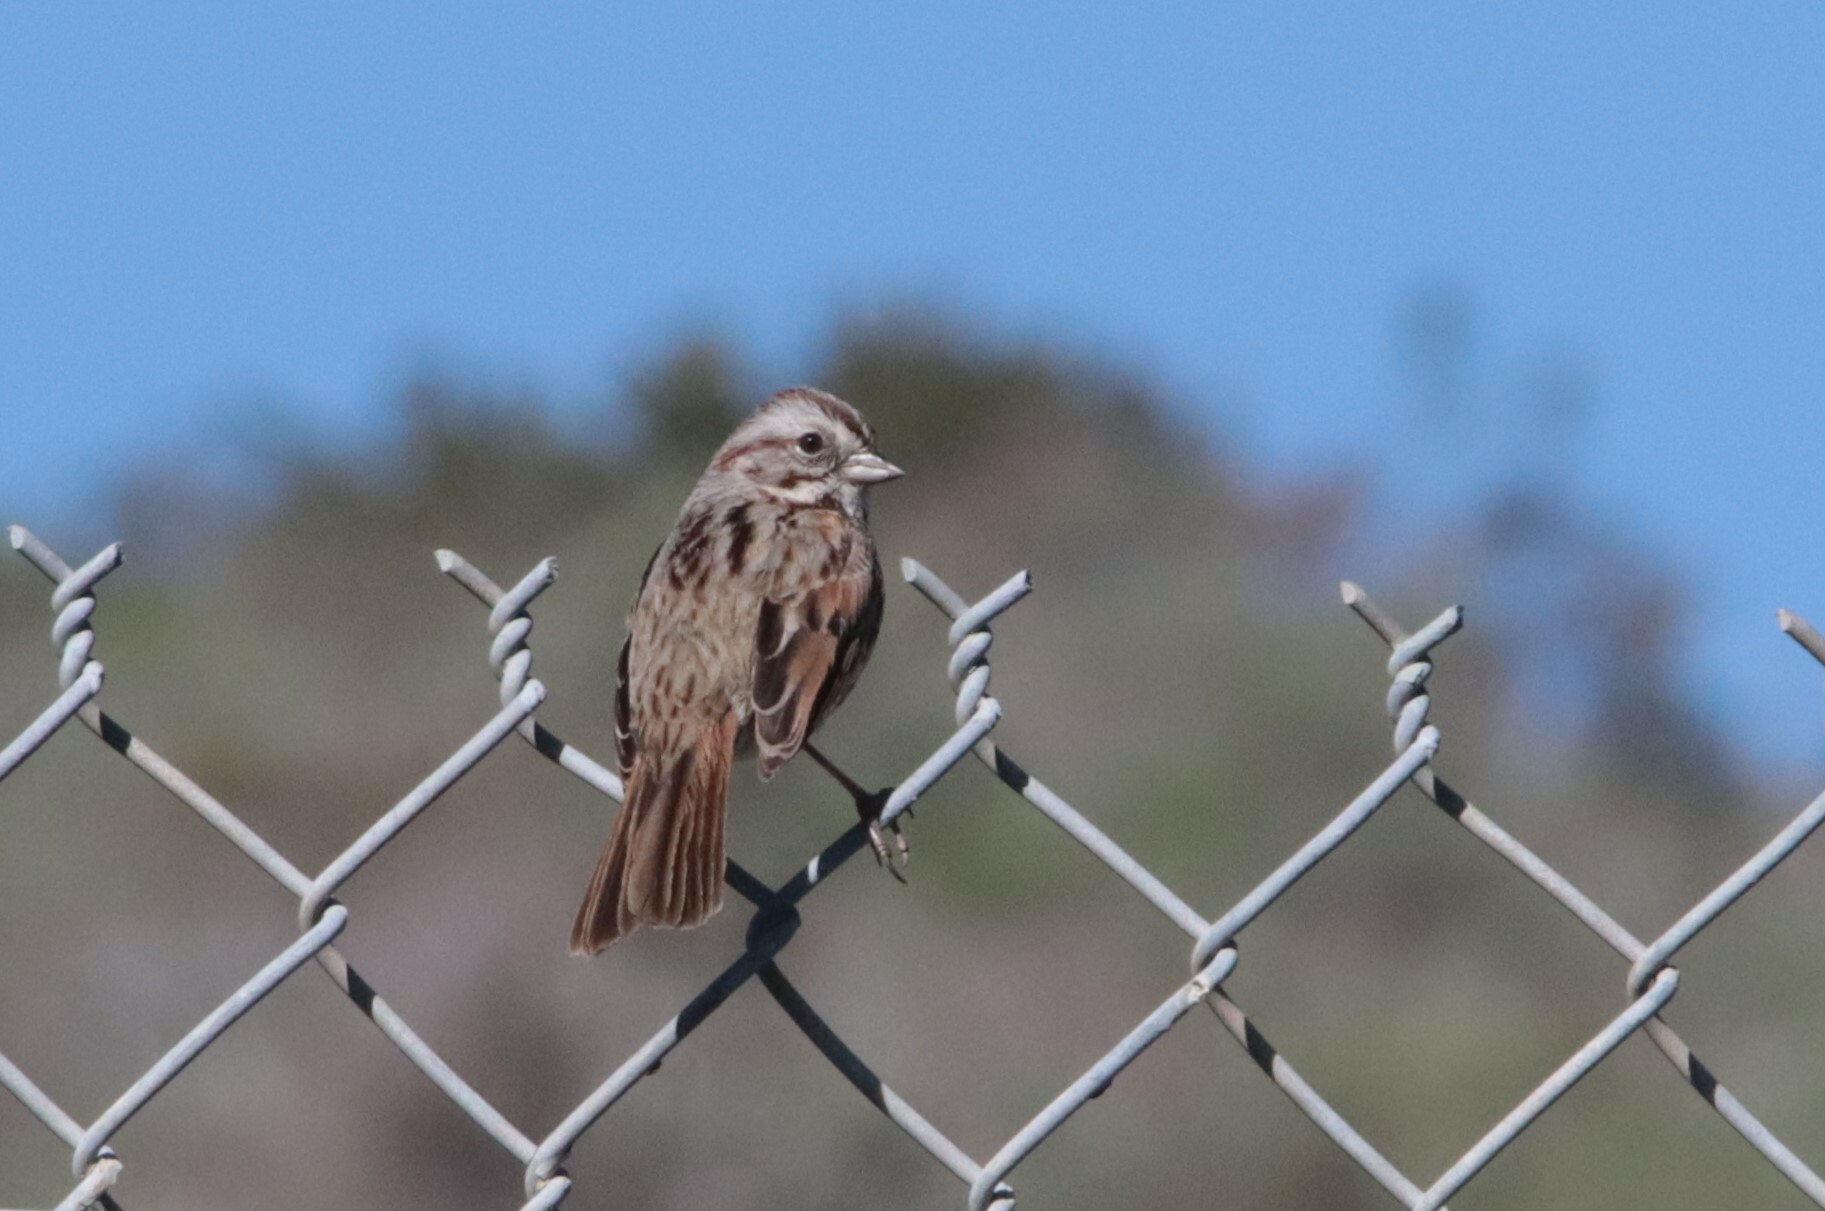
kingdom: Animalia
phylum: Chordata
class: Aves
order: Passeriformes
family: Passerellidae
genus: Melospiza
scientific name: Melospiza melodia
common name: Song sparrow
